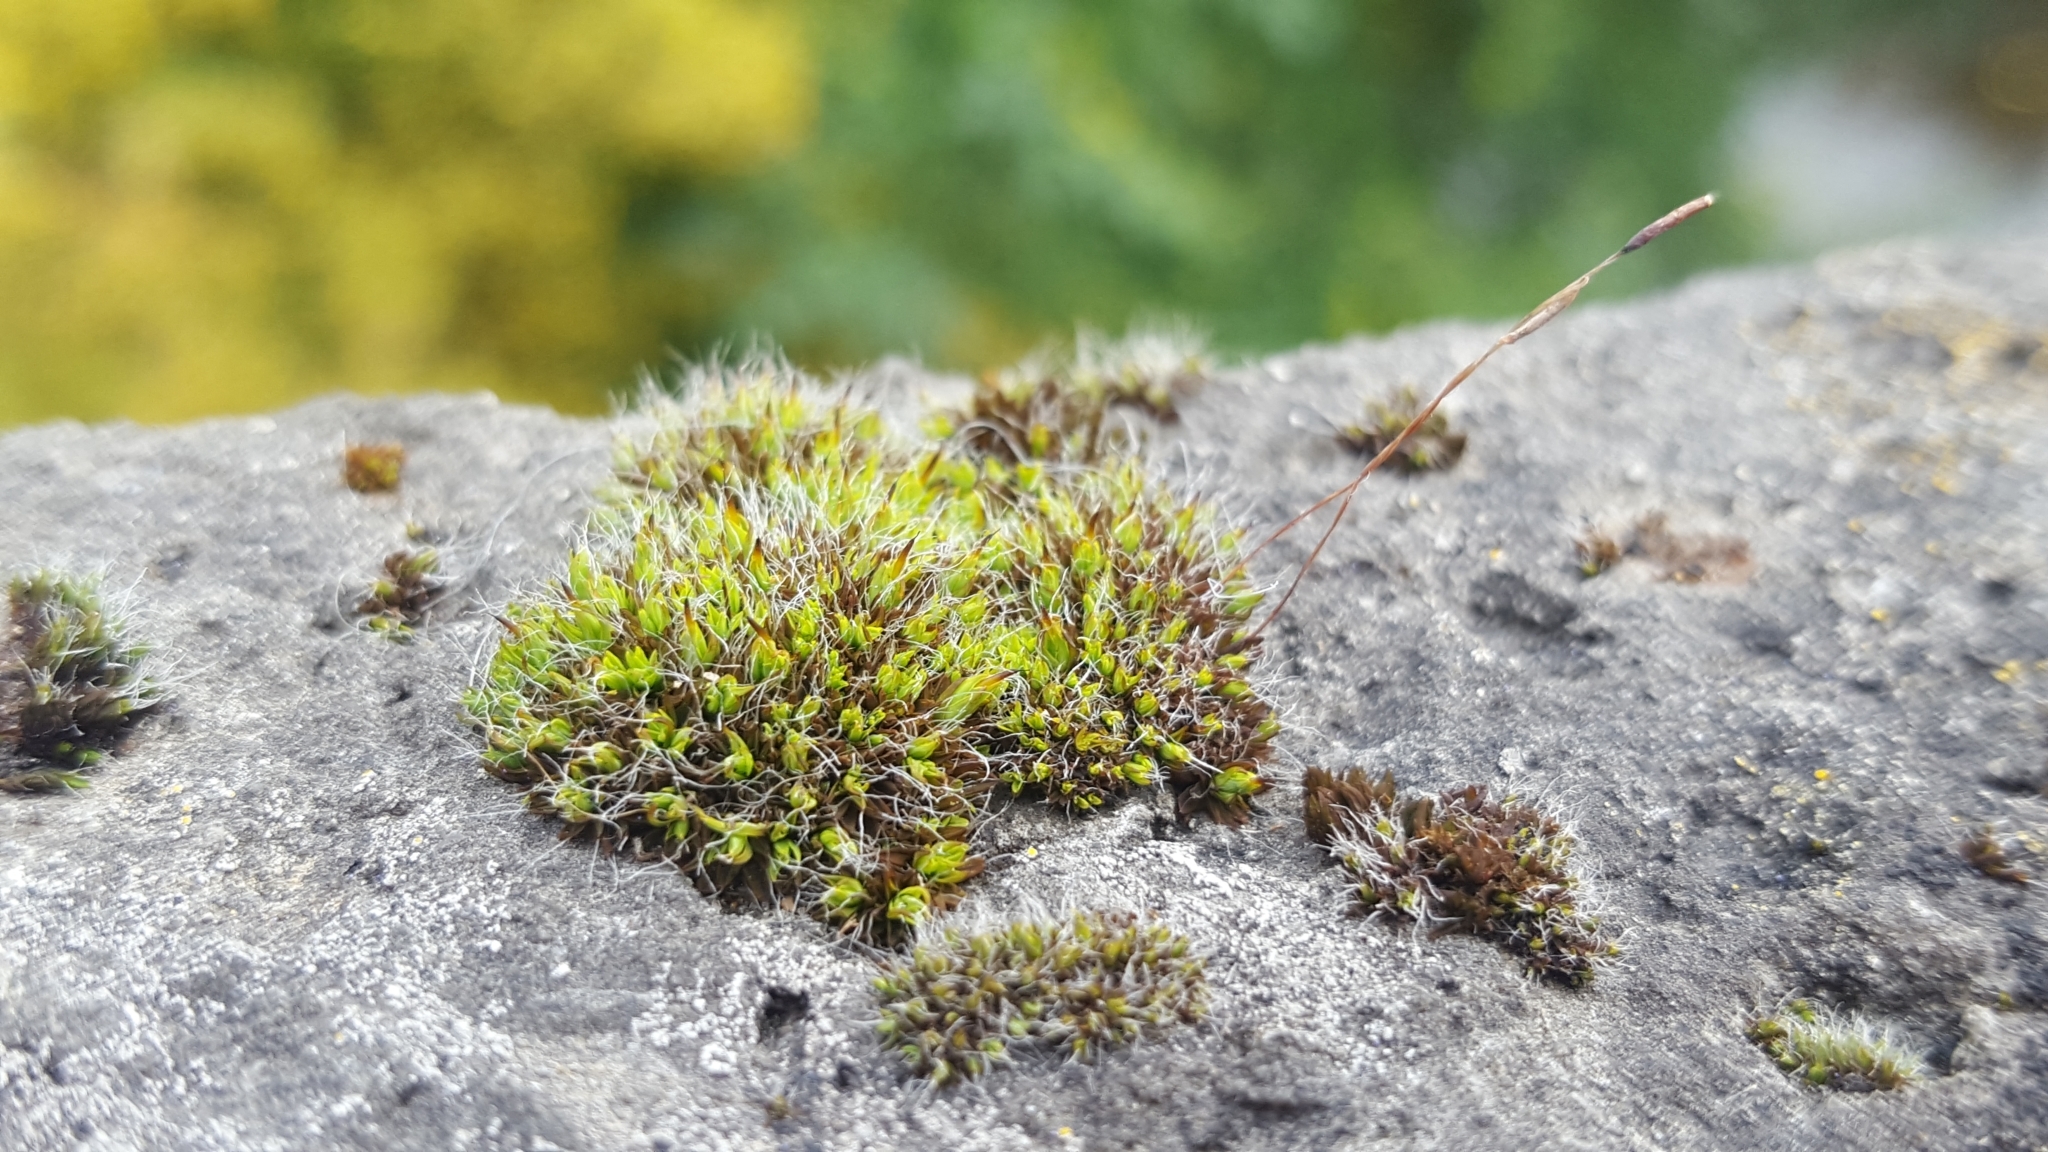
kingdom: Plantae
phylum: Bryophyta
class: Bryopsida
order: Pottiales
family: Pottiaceae
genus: Tortula
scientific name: Tortula muralis
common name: Wall screw-moss
